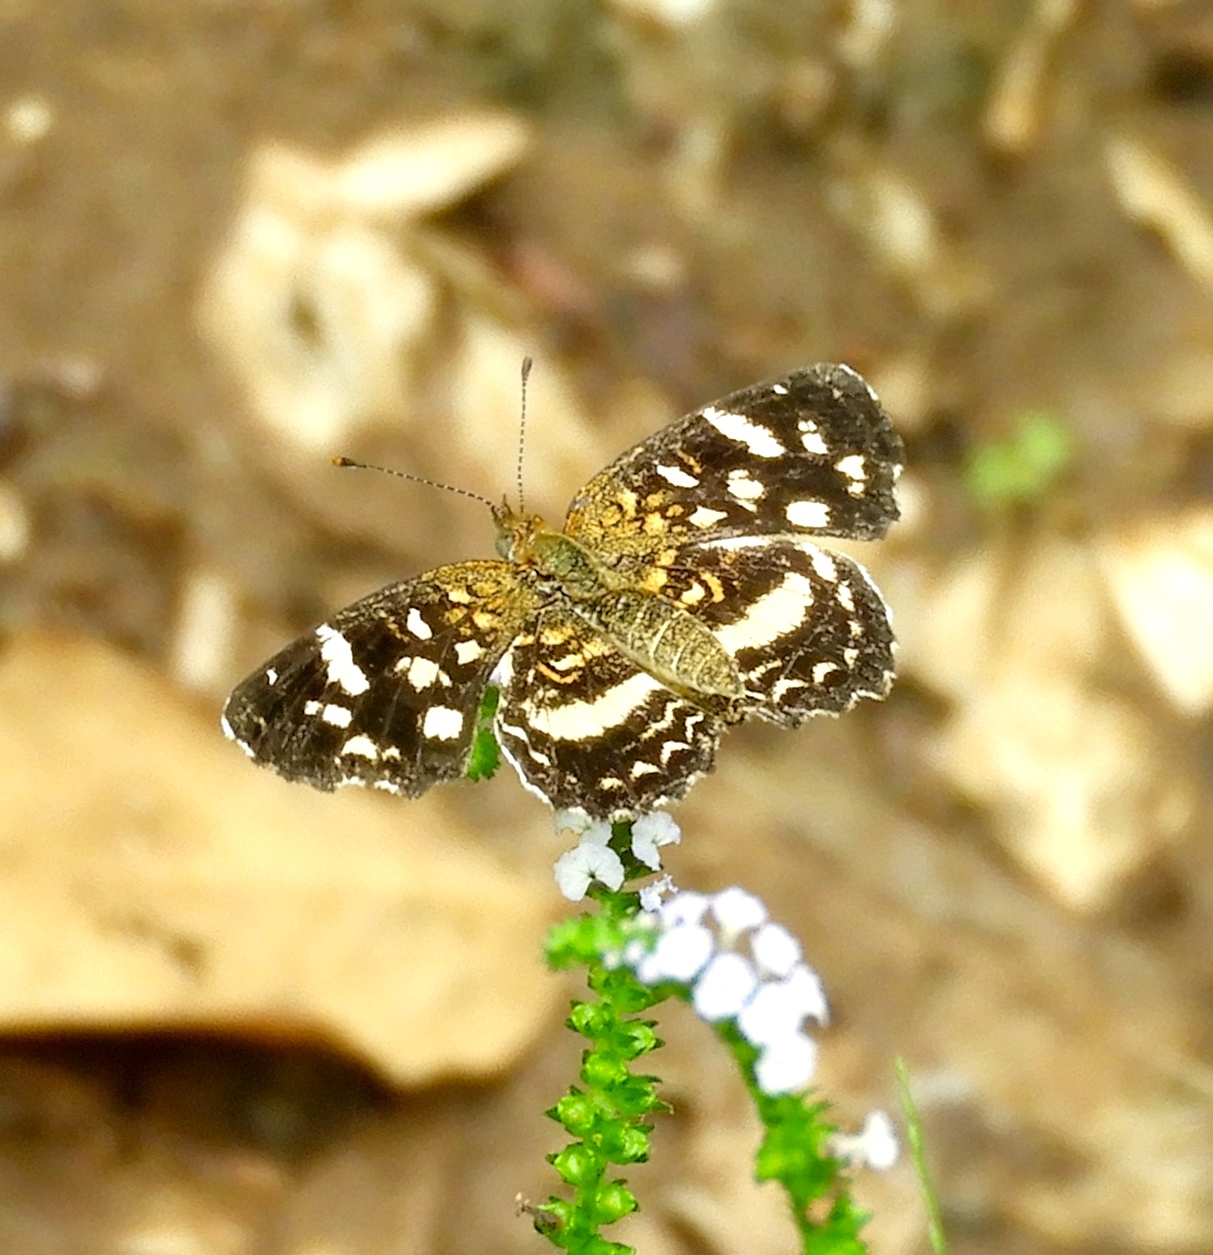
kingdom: Animalia
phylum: Arthropoda
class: Insecta
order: Lepidoptera
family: Nymphalidae
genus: Anthanassa
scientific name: Anthanassa tulcis
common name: Pale-banded crescent
